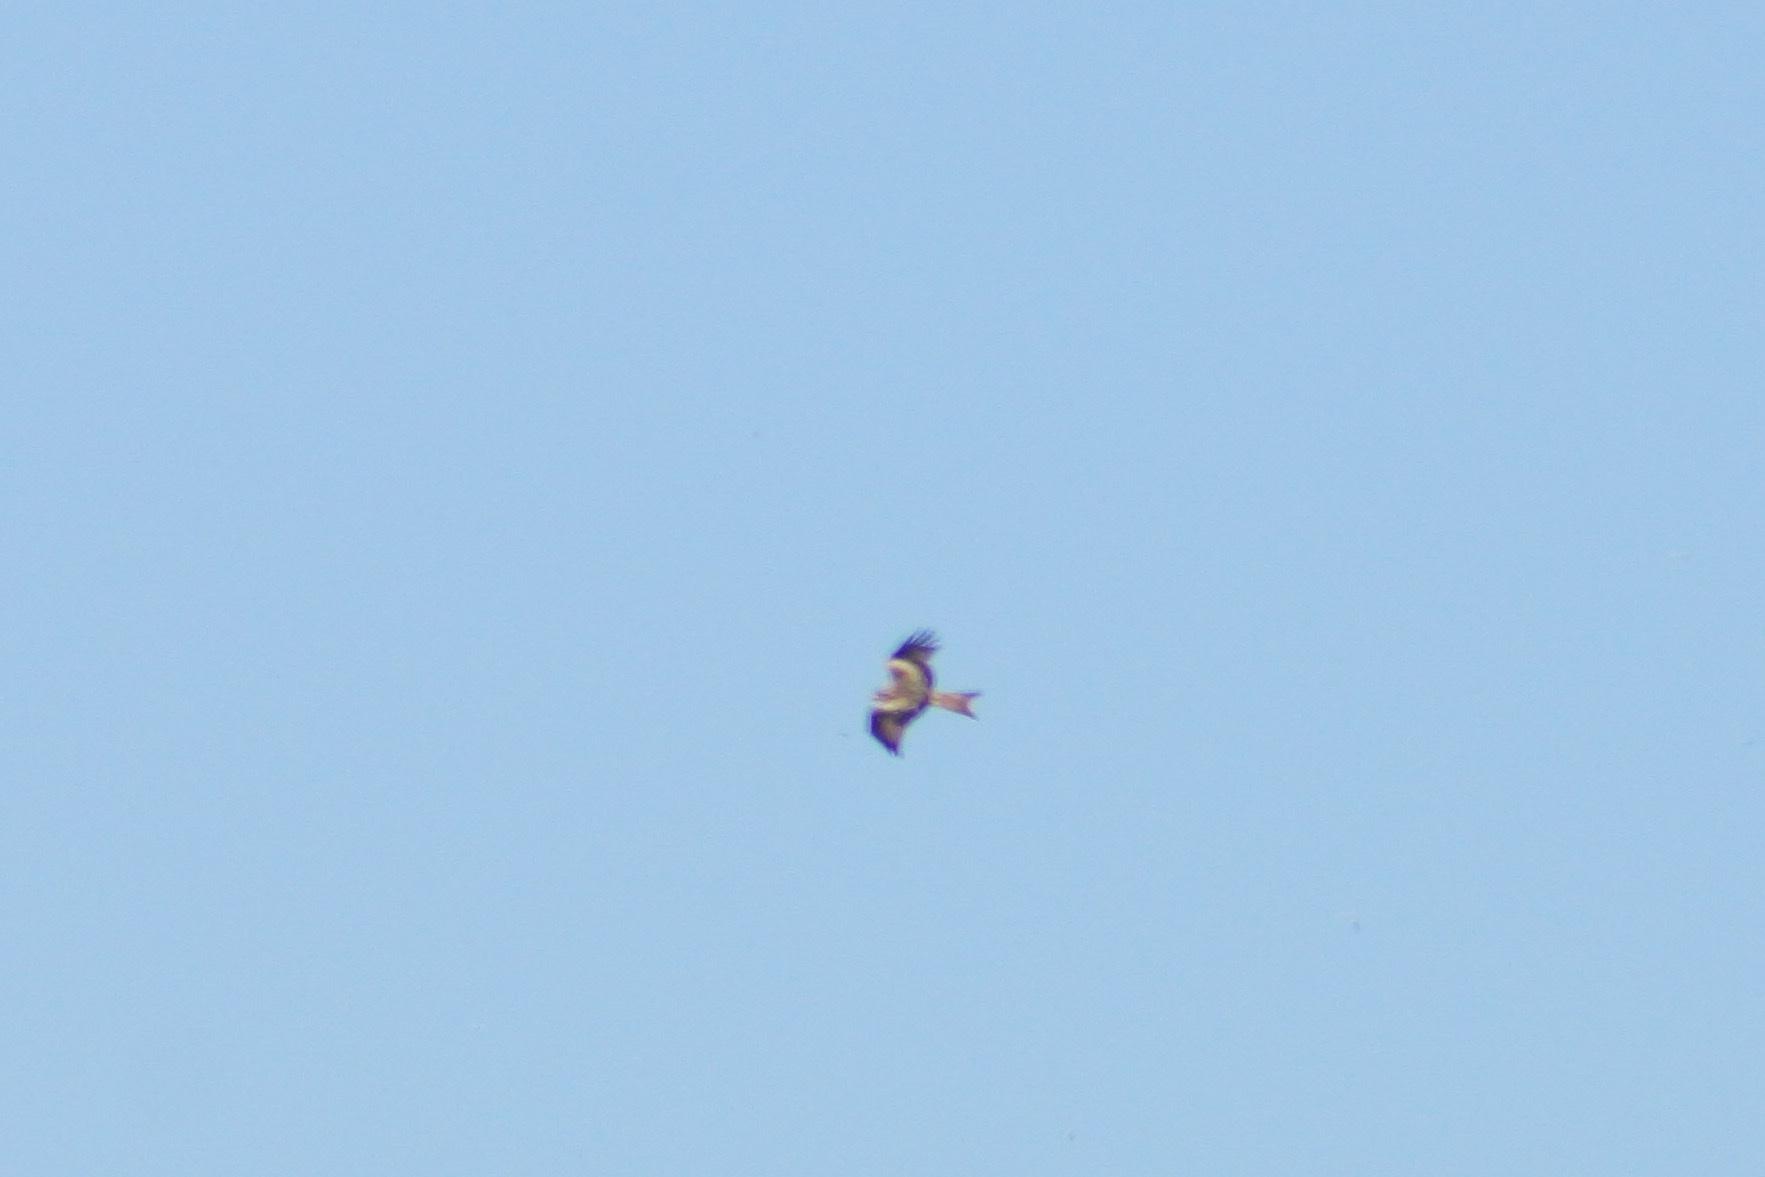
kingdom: Animalia
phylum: Chordata
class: Aves
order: Accipitriformes
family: Accipitridae
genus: Milvus
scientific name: Milvus milvus
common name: Red kite
